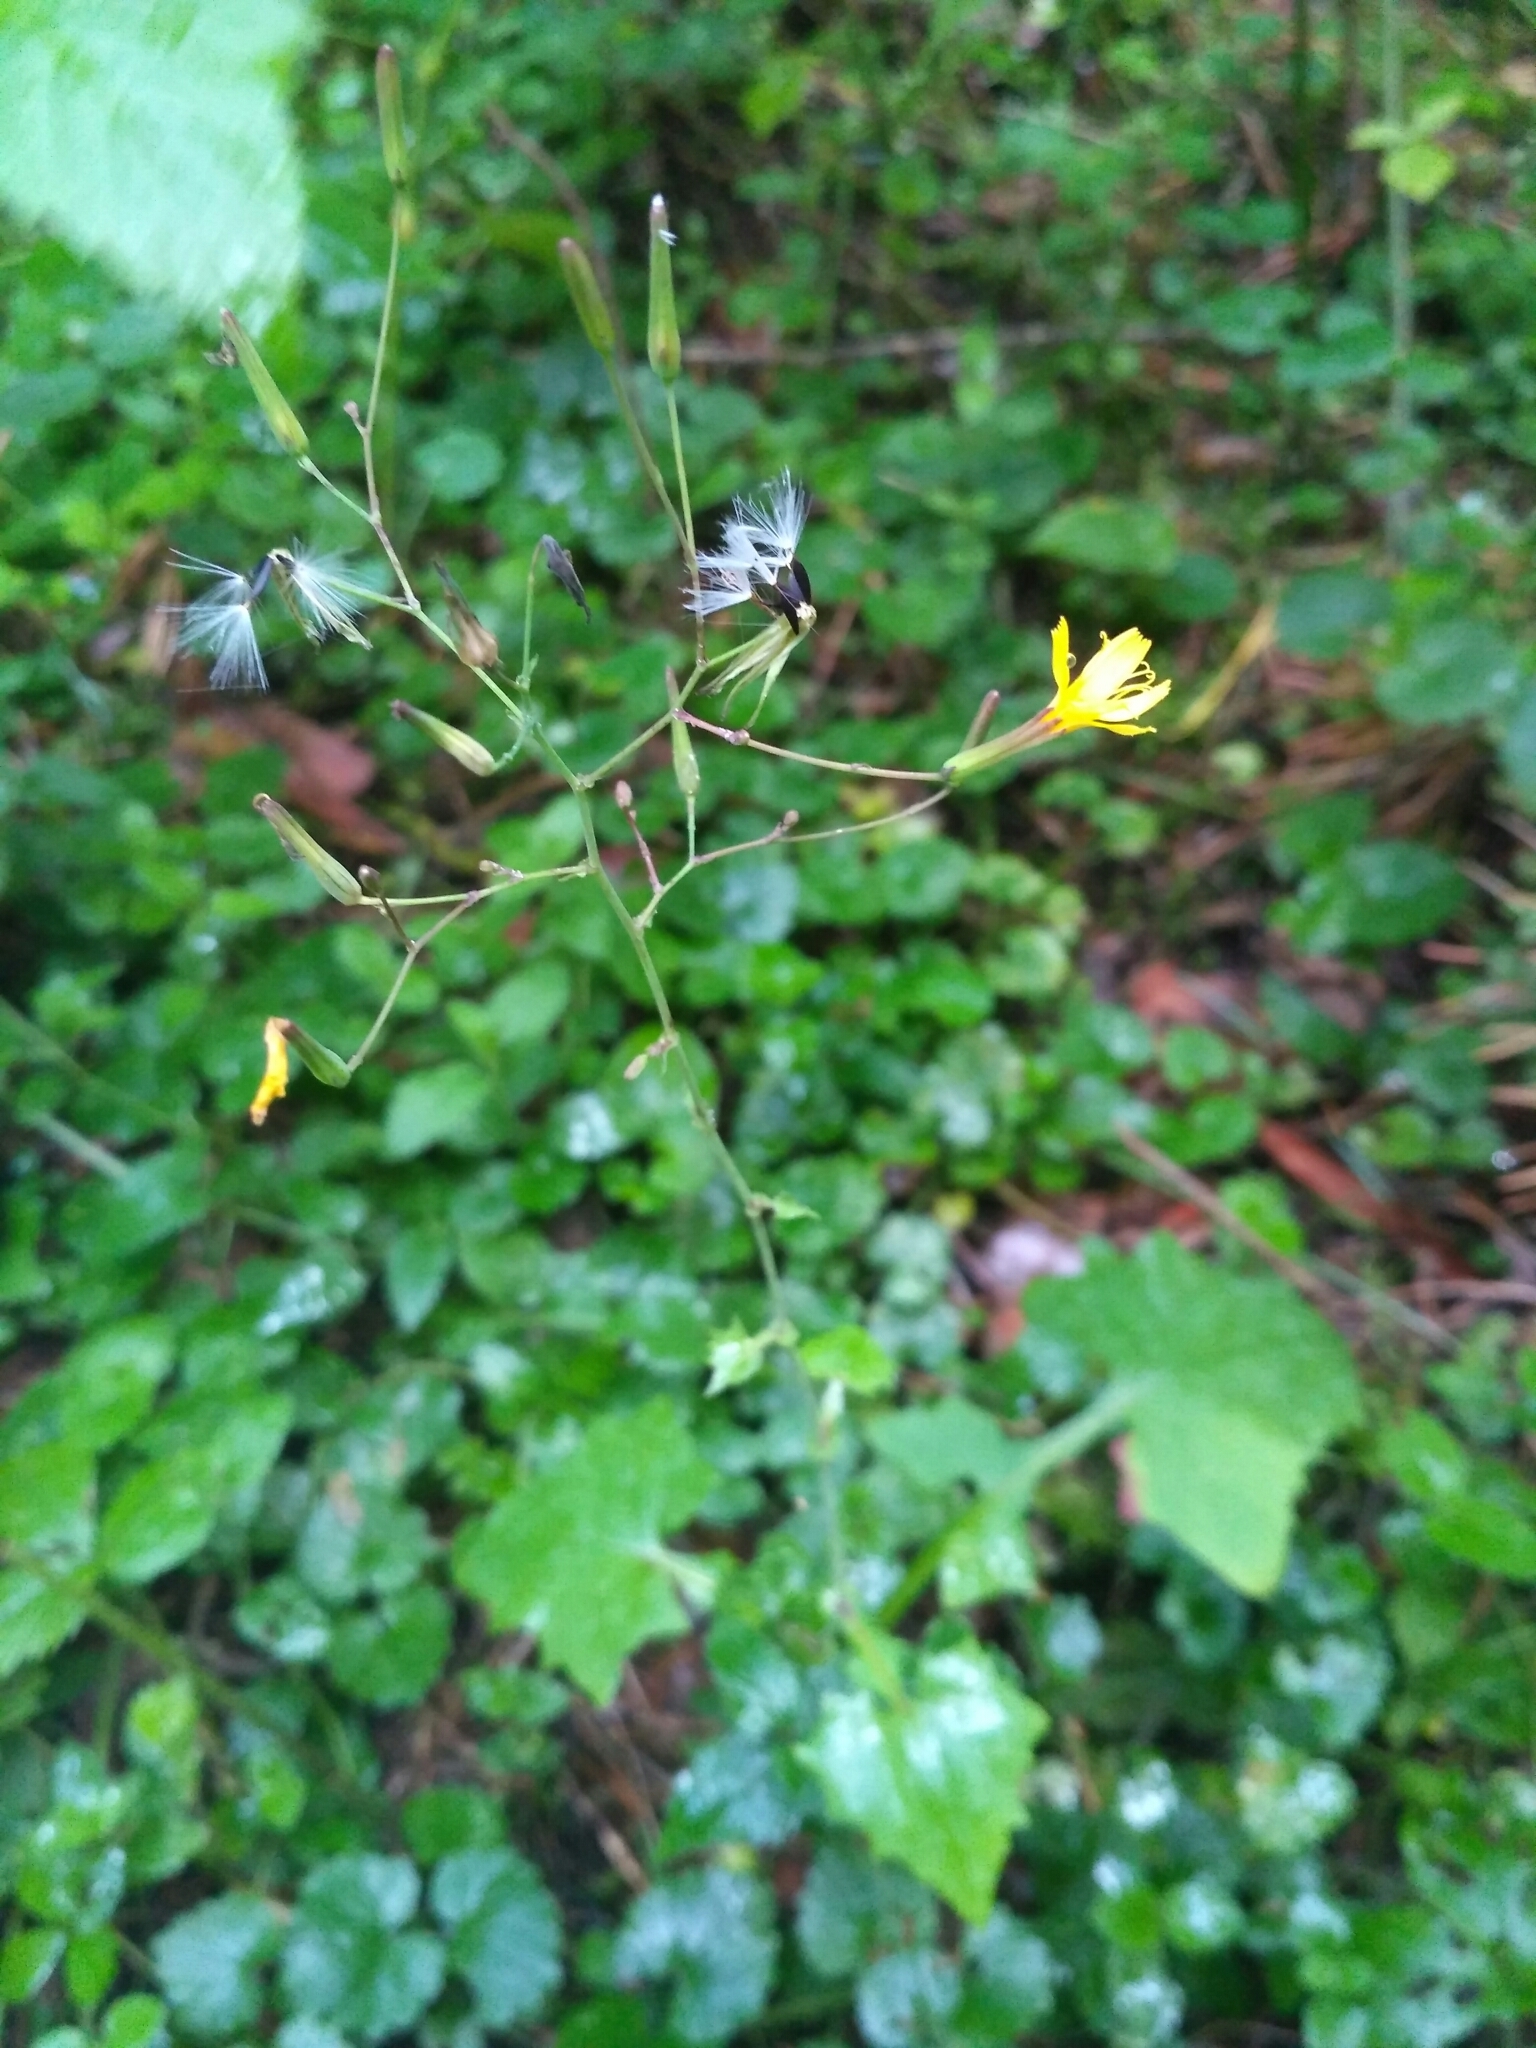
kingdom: Plantae
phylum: Tracheophyta
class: Magnoliopsida
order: Asterales
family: Asteraceae
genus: Mycelis
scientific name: Mycelis muralis
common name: Wall lettuce
